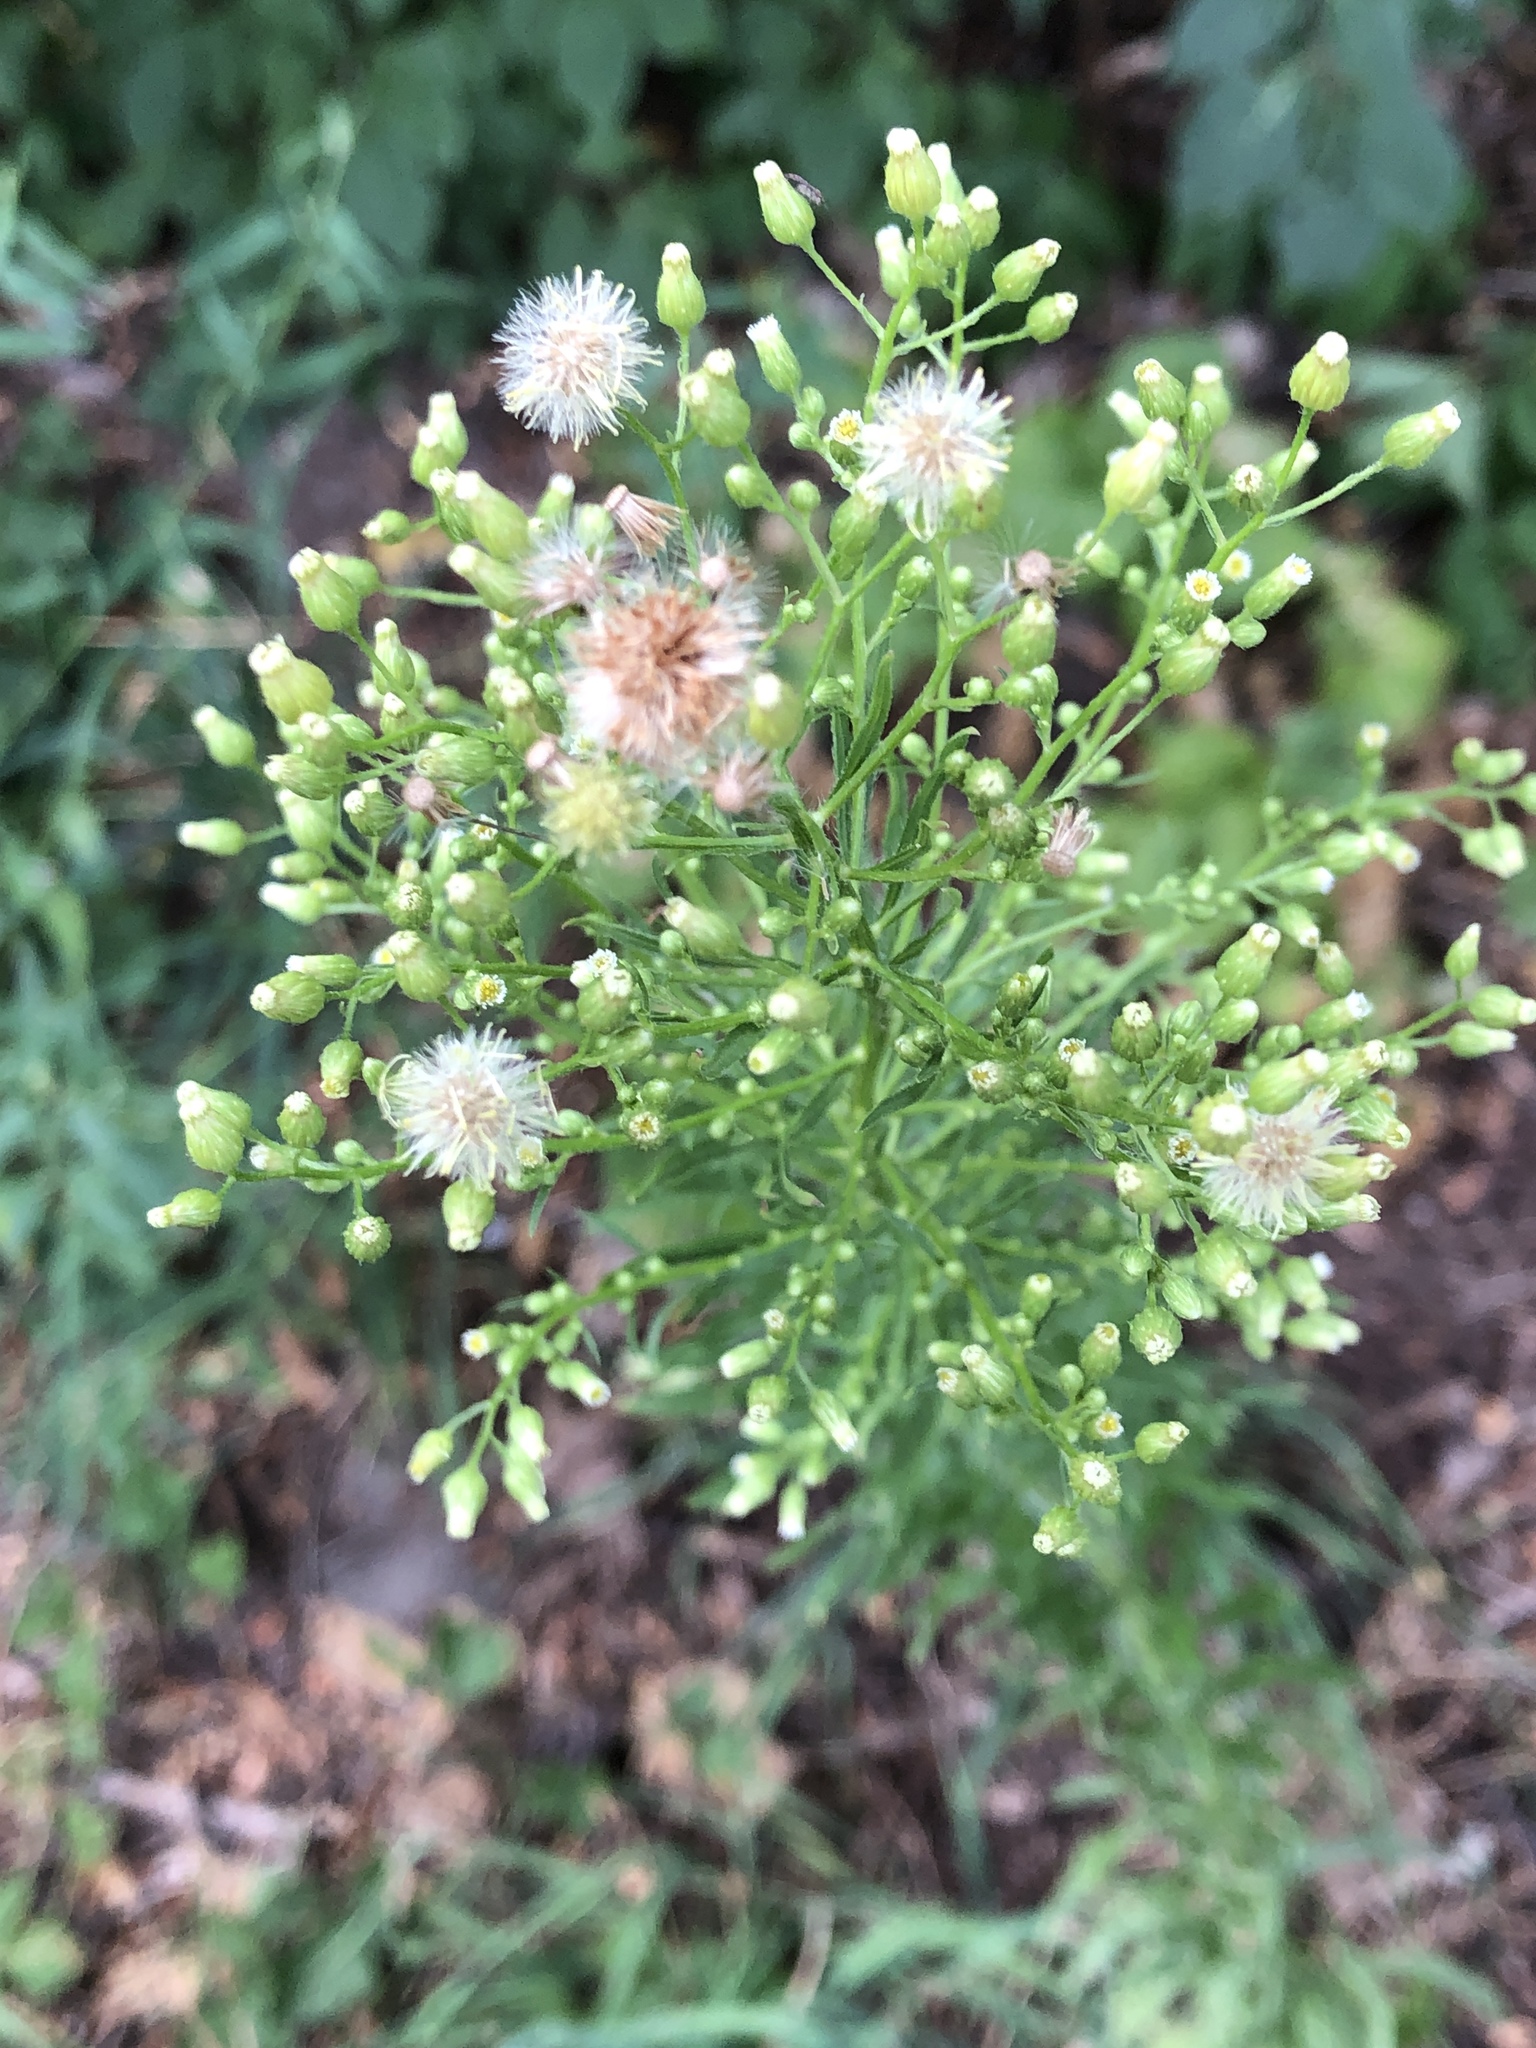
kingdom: Plantae
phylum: Tracheophyta
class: Magnoliopsida
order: Asterales
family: Asteraceae
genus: Erigeron
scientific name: Erigeron canadensis
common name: Canadian fleabane
